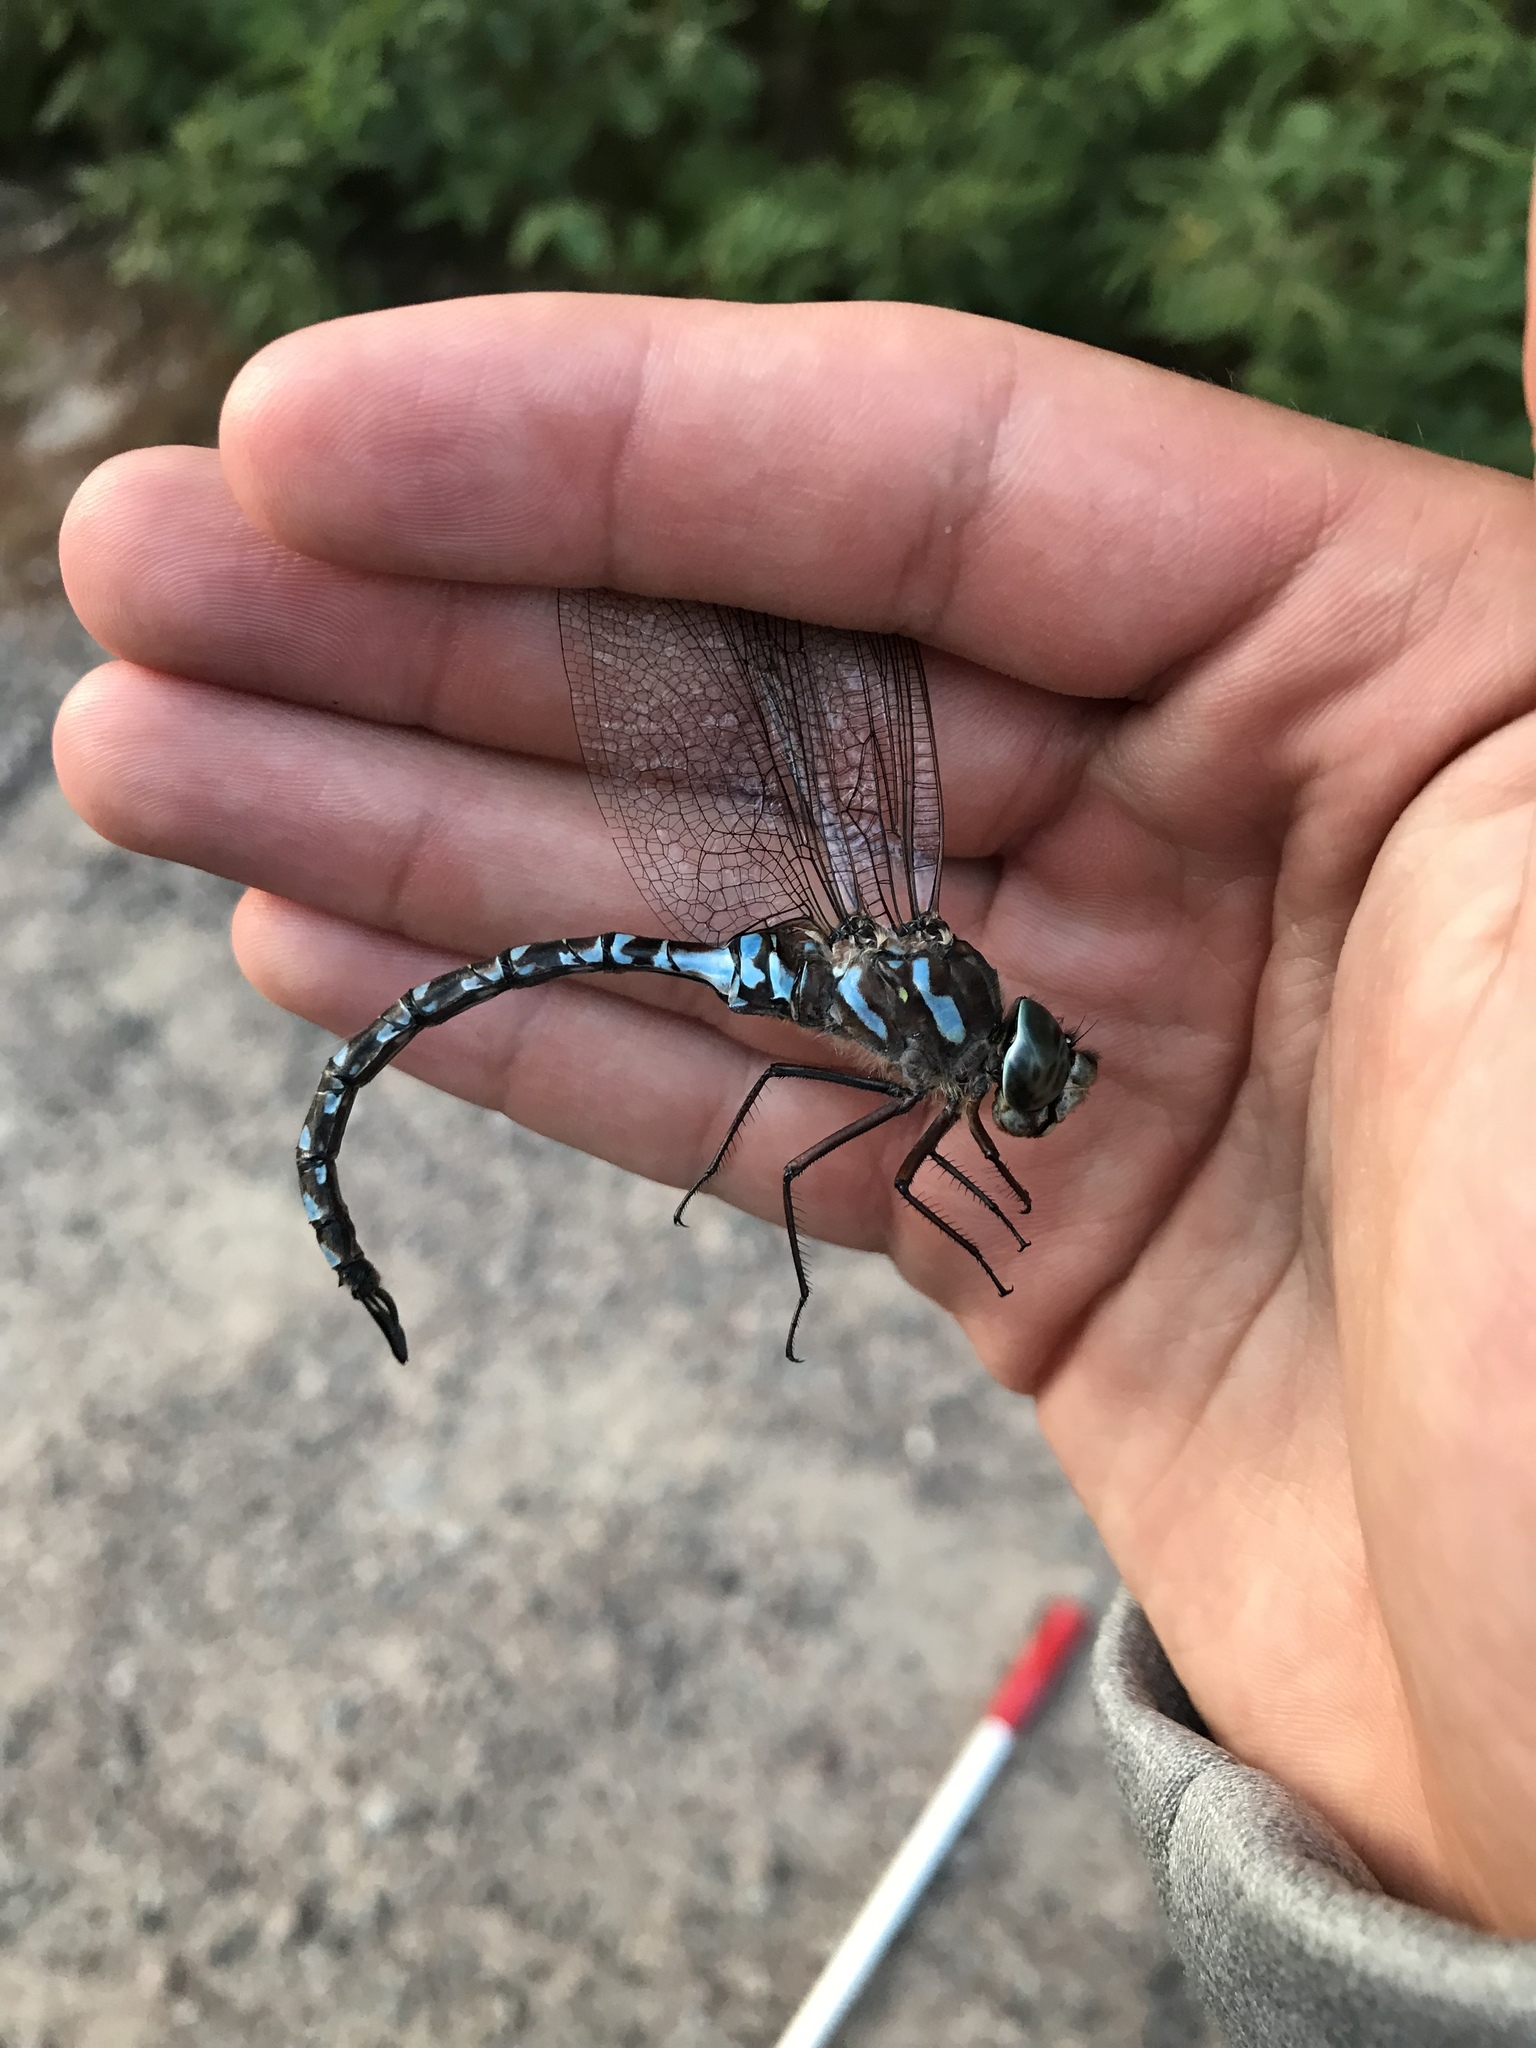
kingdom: Animalia
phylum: Arthropoda
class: Insecta
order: Odonata
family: Aeshnidae
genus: Aeshna
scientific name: Aeshna canadensis
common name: Canada darner
